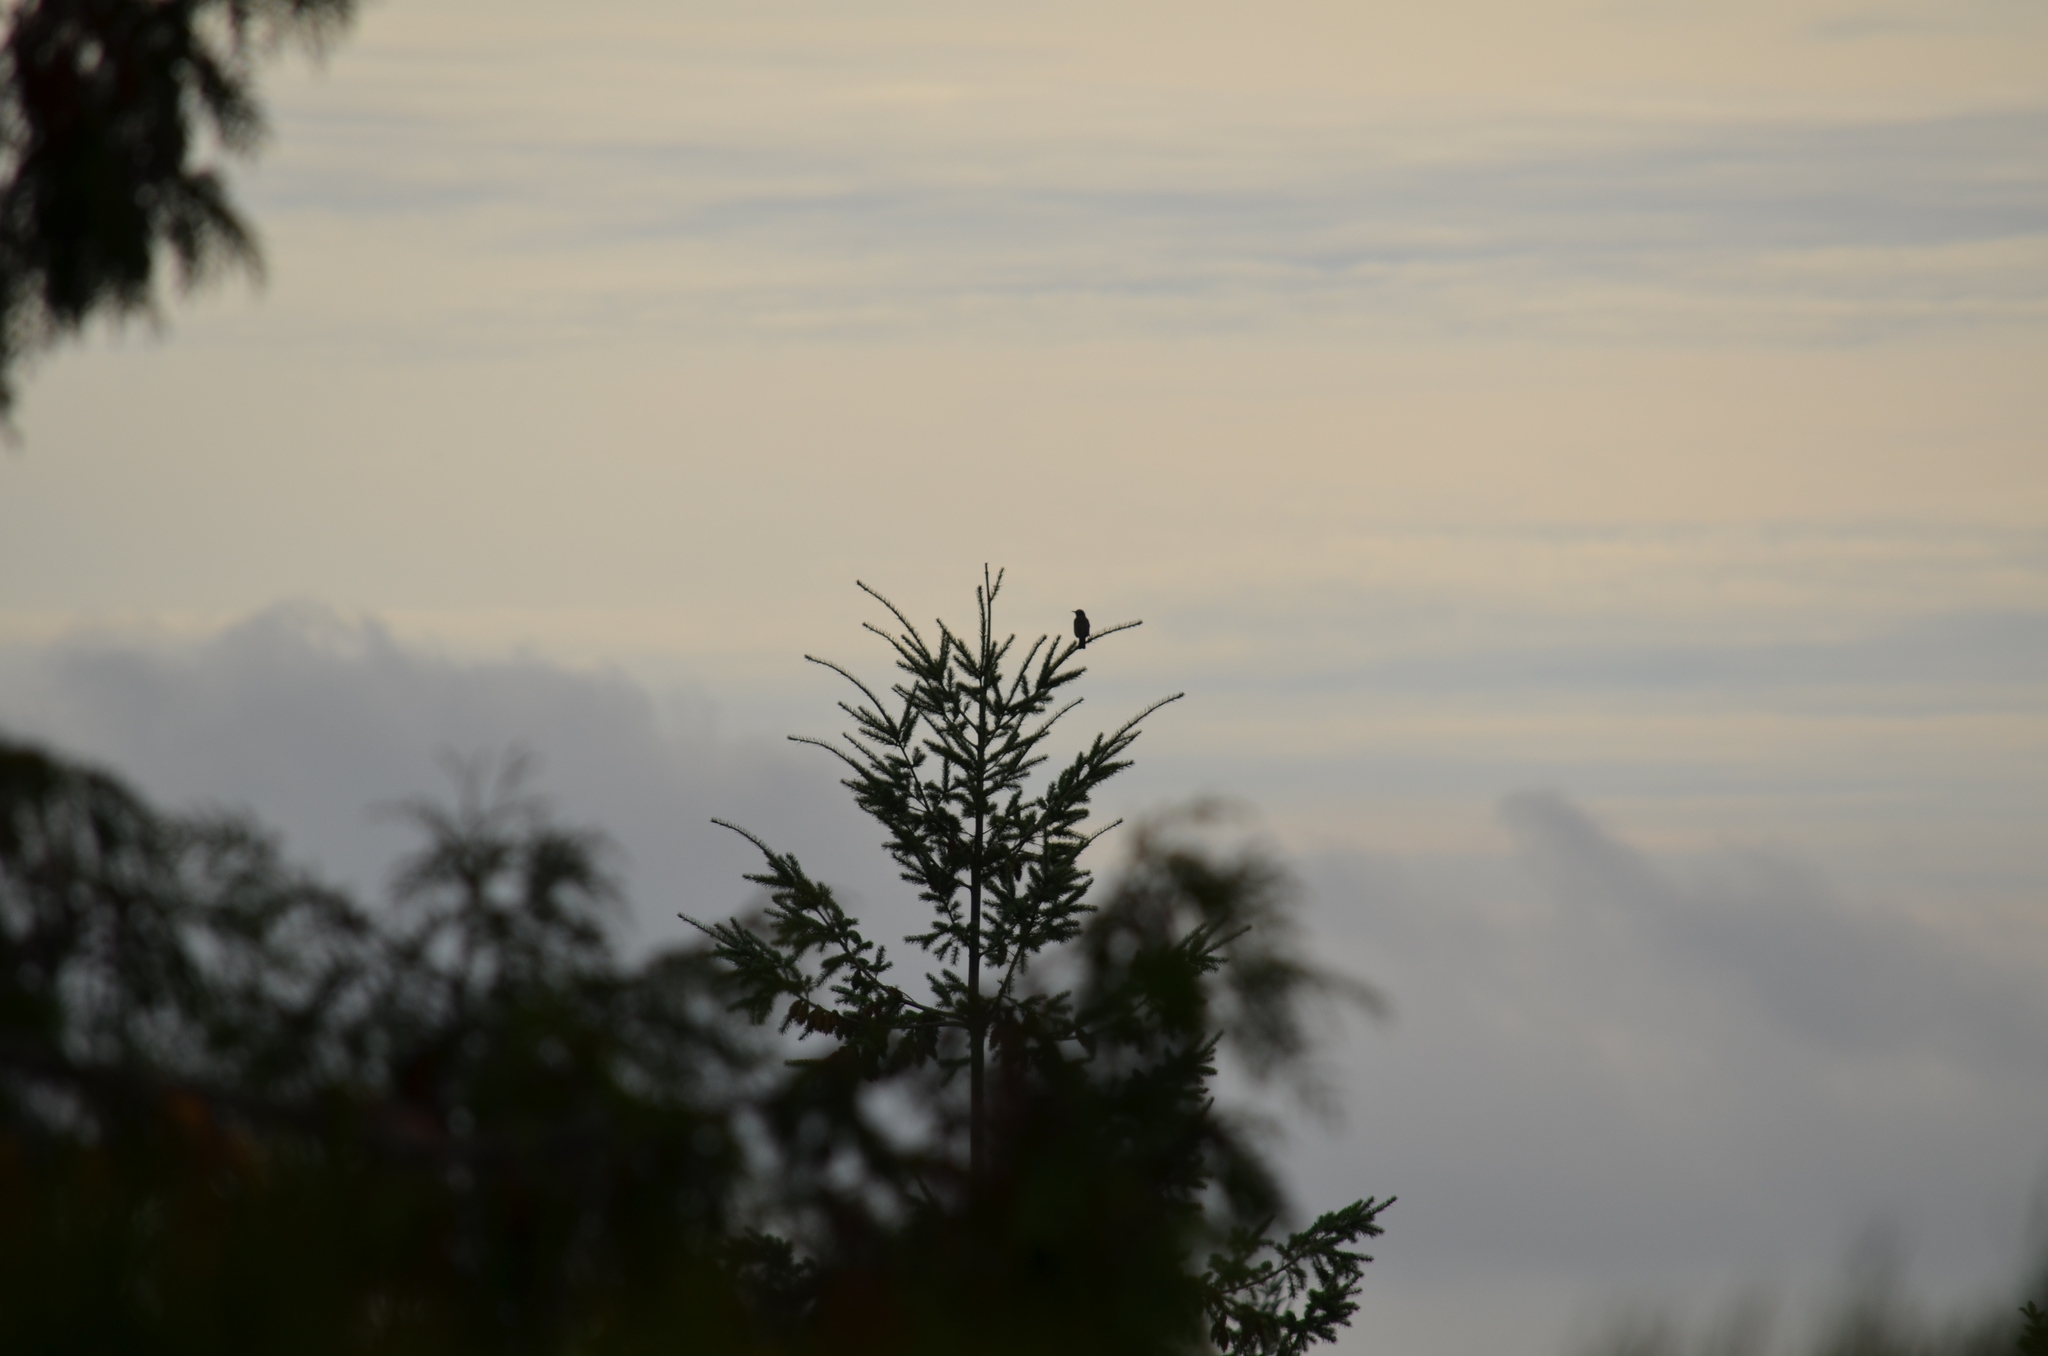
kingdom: Animalia
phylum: Chordata
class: Aves
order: Passeriformes
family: Turdidae
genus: Turdus
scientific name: Turdus migratorius
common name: American robin
